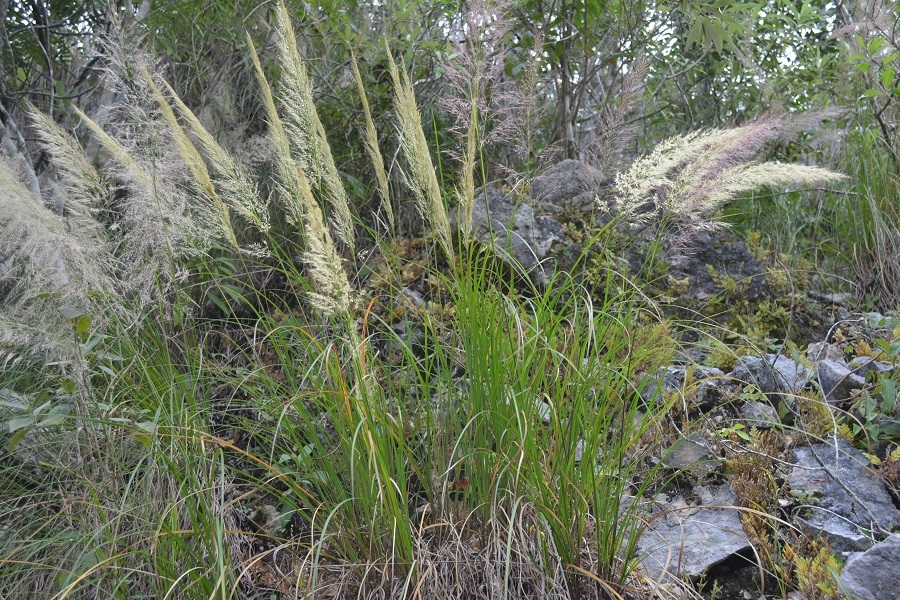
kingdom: Plantae
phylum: Tracheophyta
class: Liliopsida
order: Poales
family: Poaceae
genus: Muhlenbergia
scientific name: Muhlenbergia versicolor
